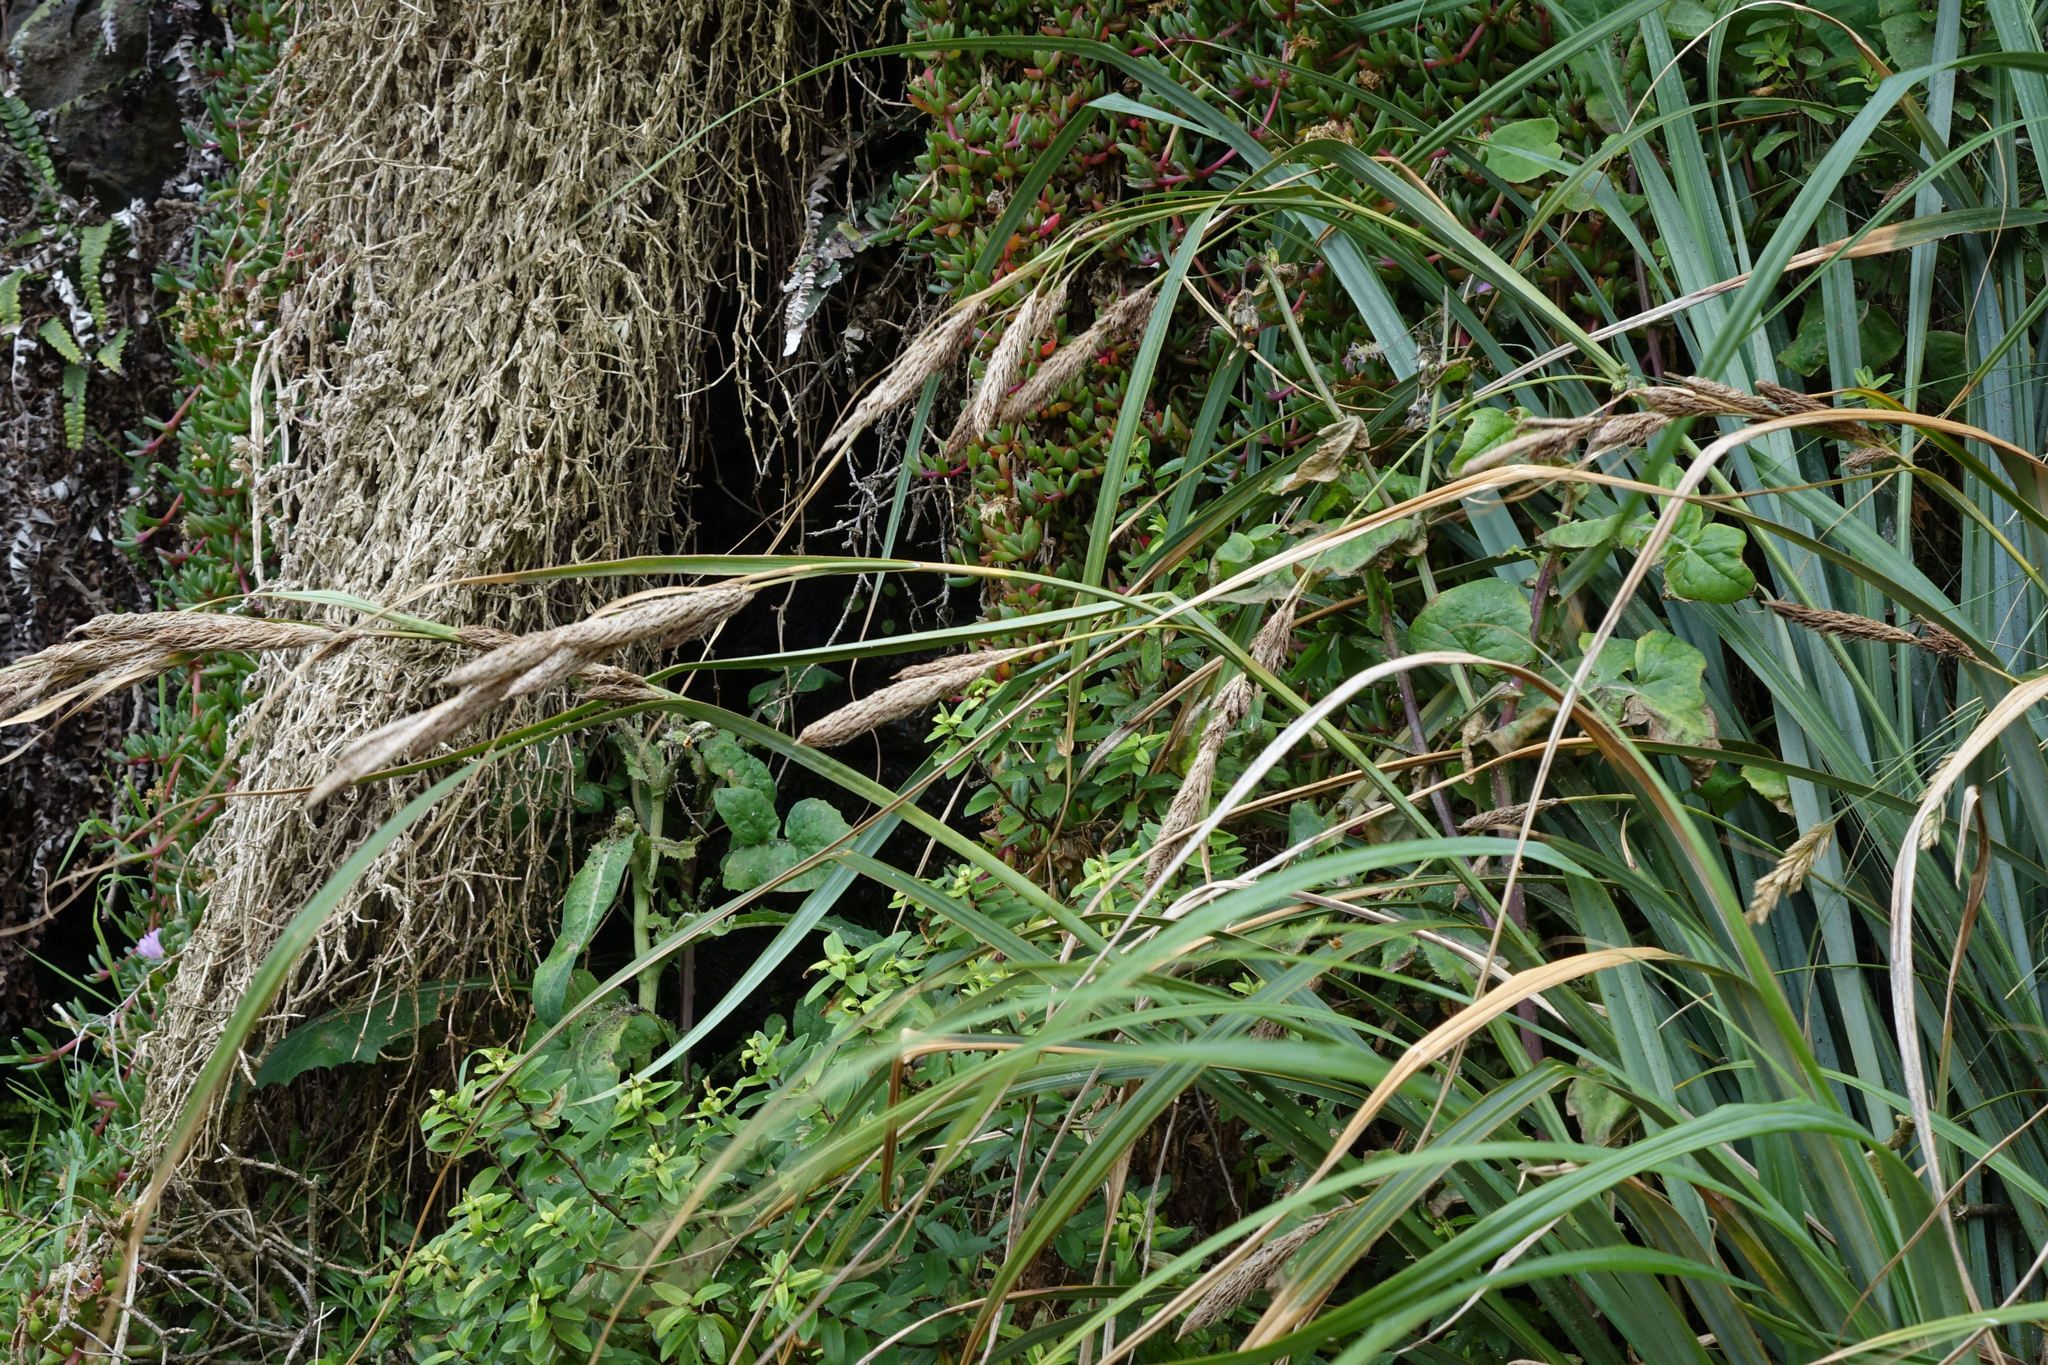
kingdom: Plantae
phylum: Tracheophyta
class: Liliopsida
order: Poales
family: Cyperaceae
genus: Carex
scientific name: Carex trifida
